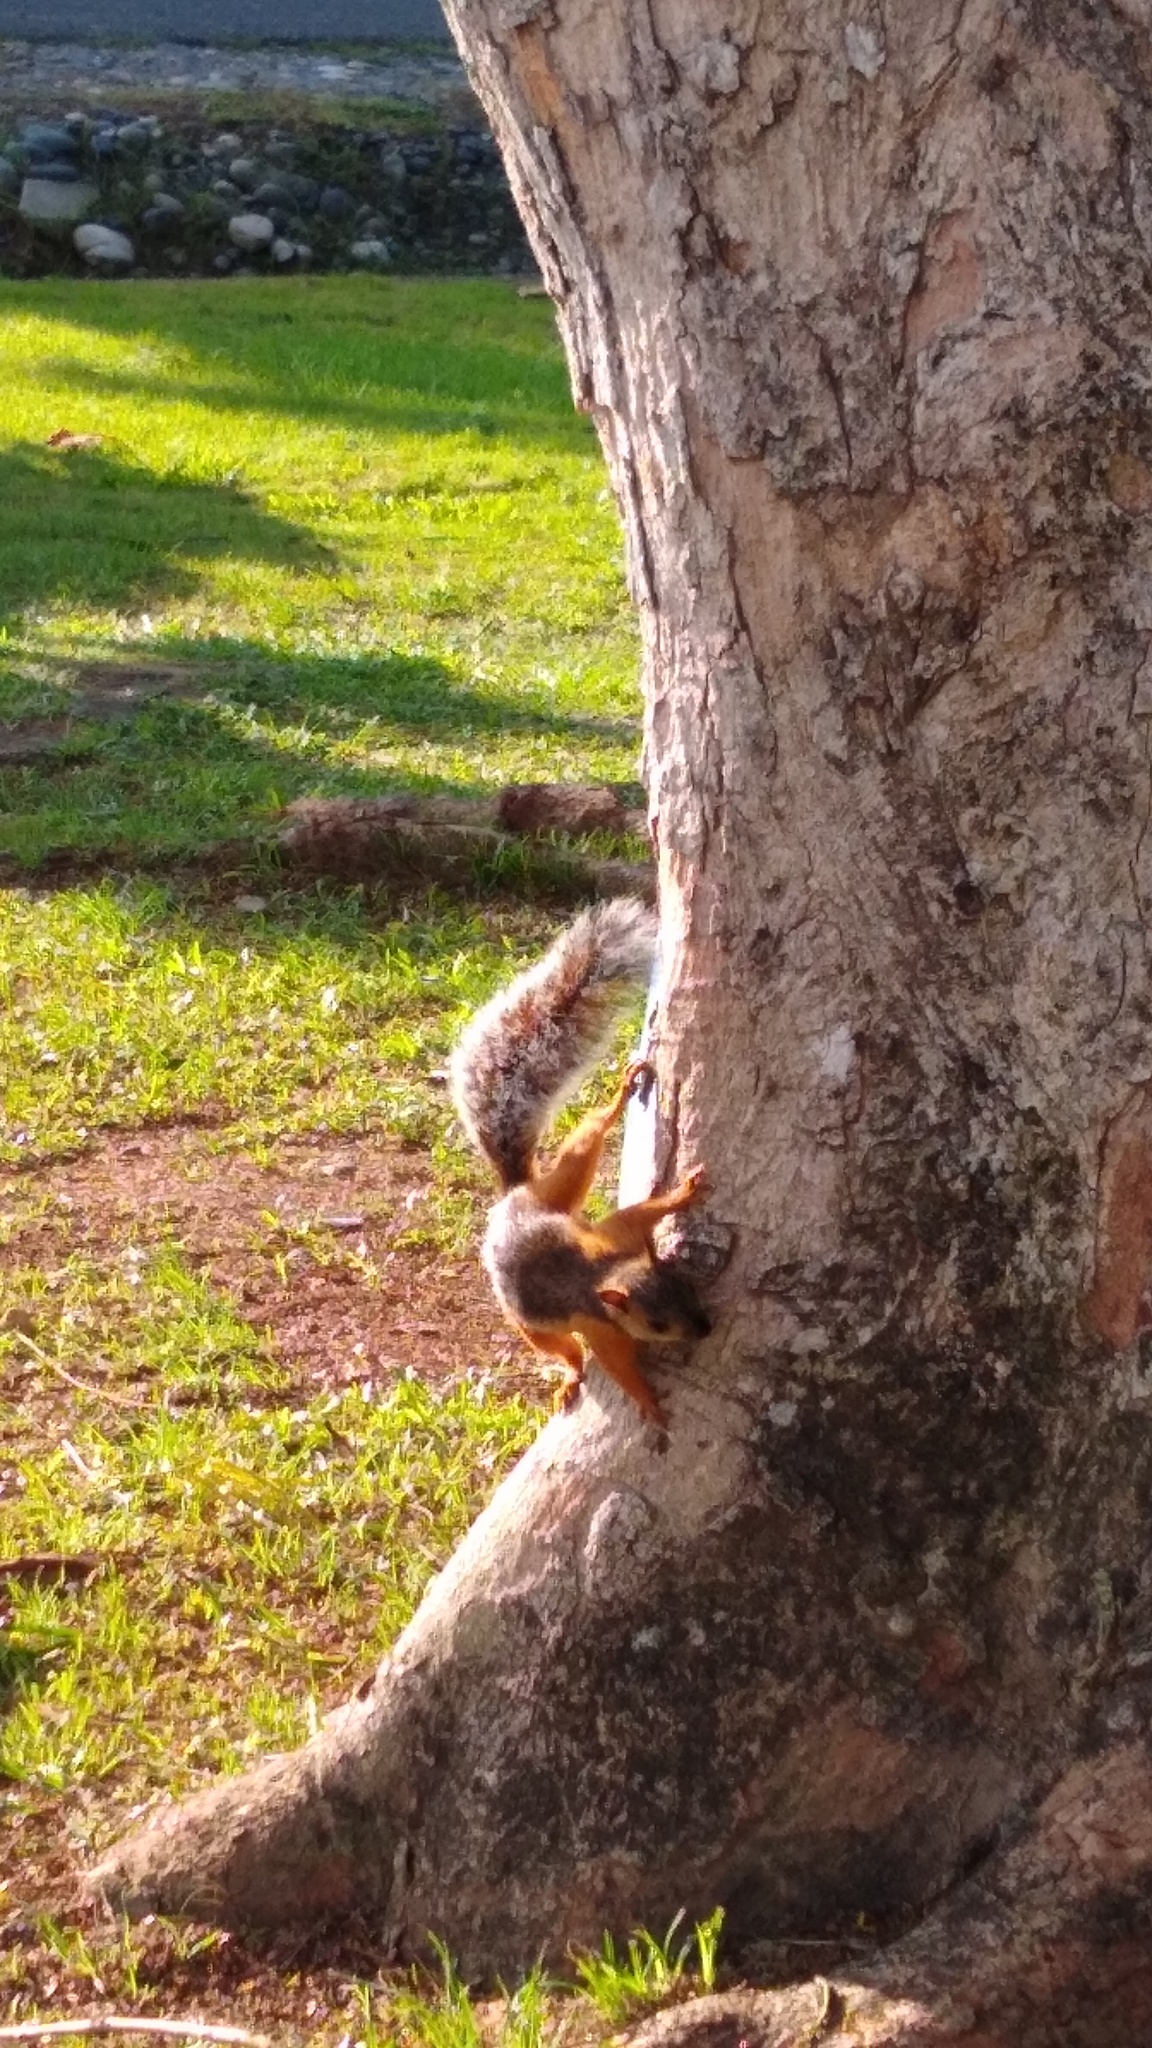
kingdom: Animalia
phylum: Chordata
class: Mammalia
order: Rodentia
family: Sciuridae
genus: Sciurus
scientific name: Sciurus variegatoides
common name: Variegated squirrel
